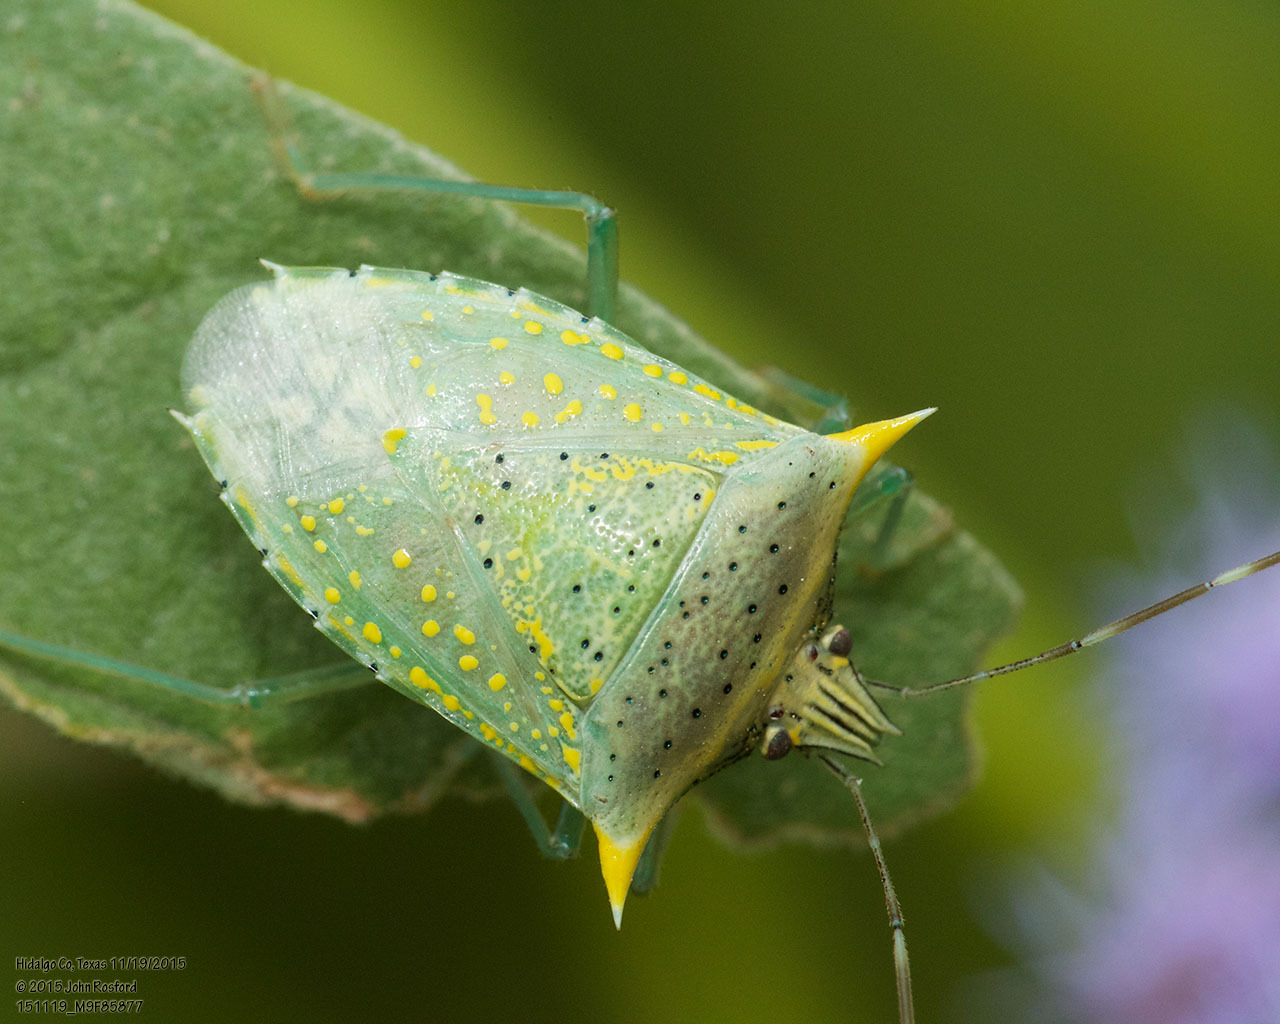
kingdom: Animalia
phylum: Arthropoda
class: Insecta
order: Hemiptera
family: Pentatomidae
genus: Arvelius
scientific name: Arvelius albopunctatus
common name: Tomato stink bug
